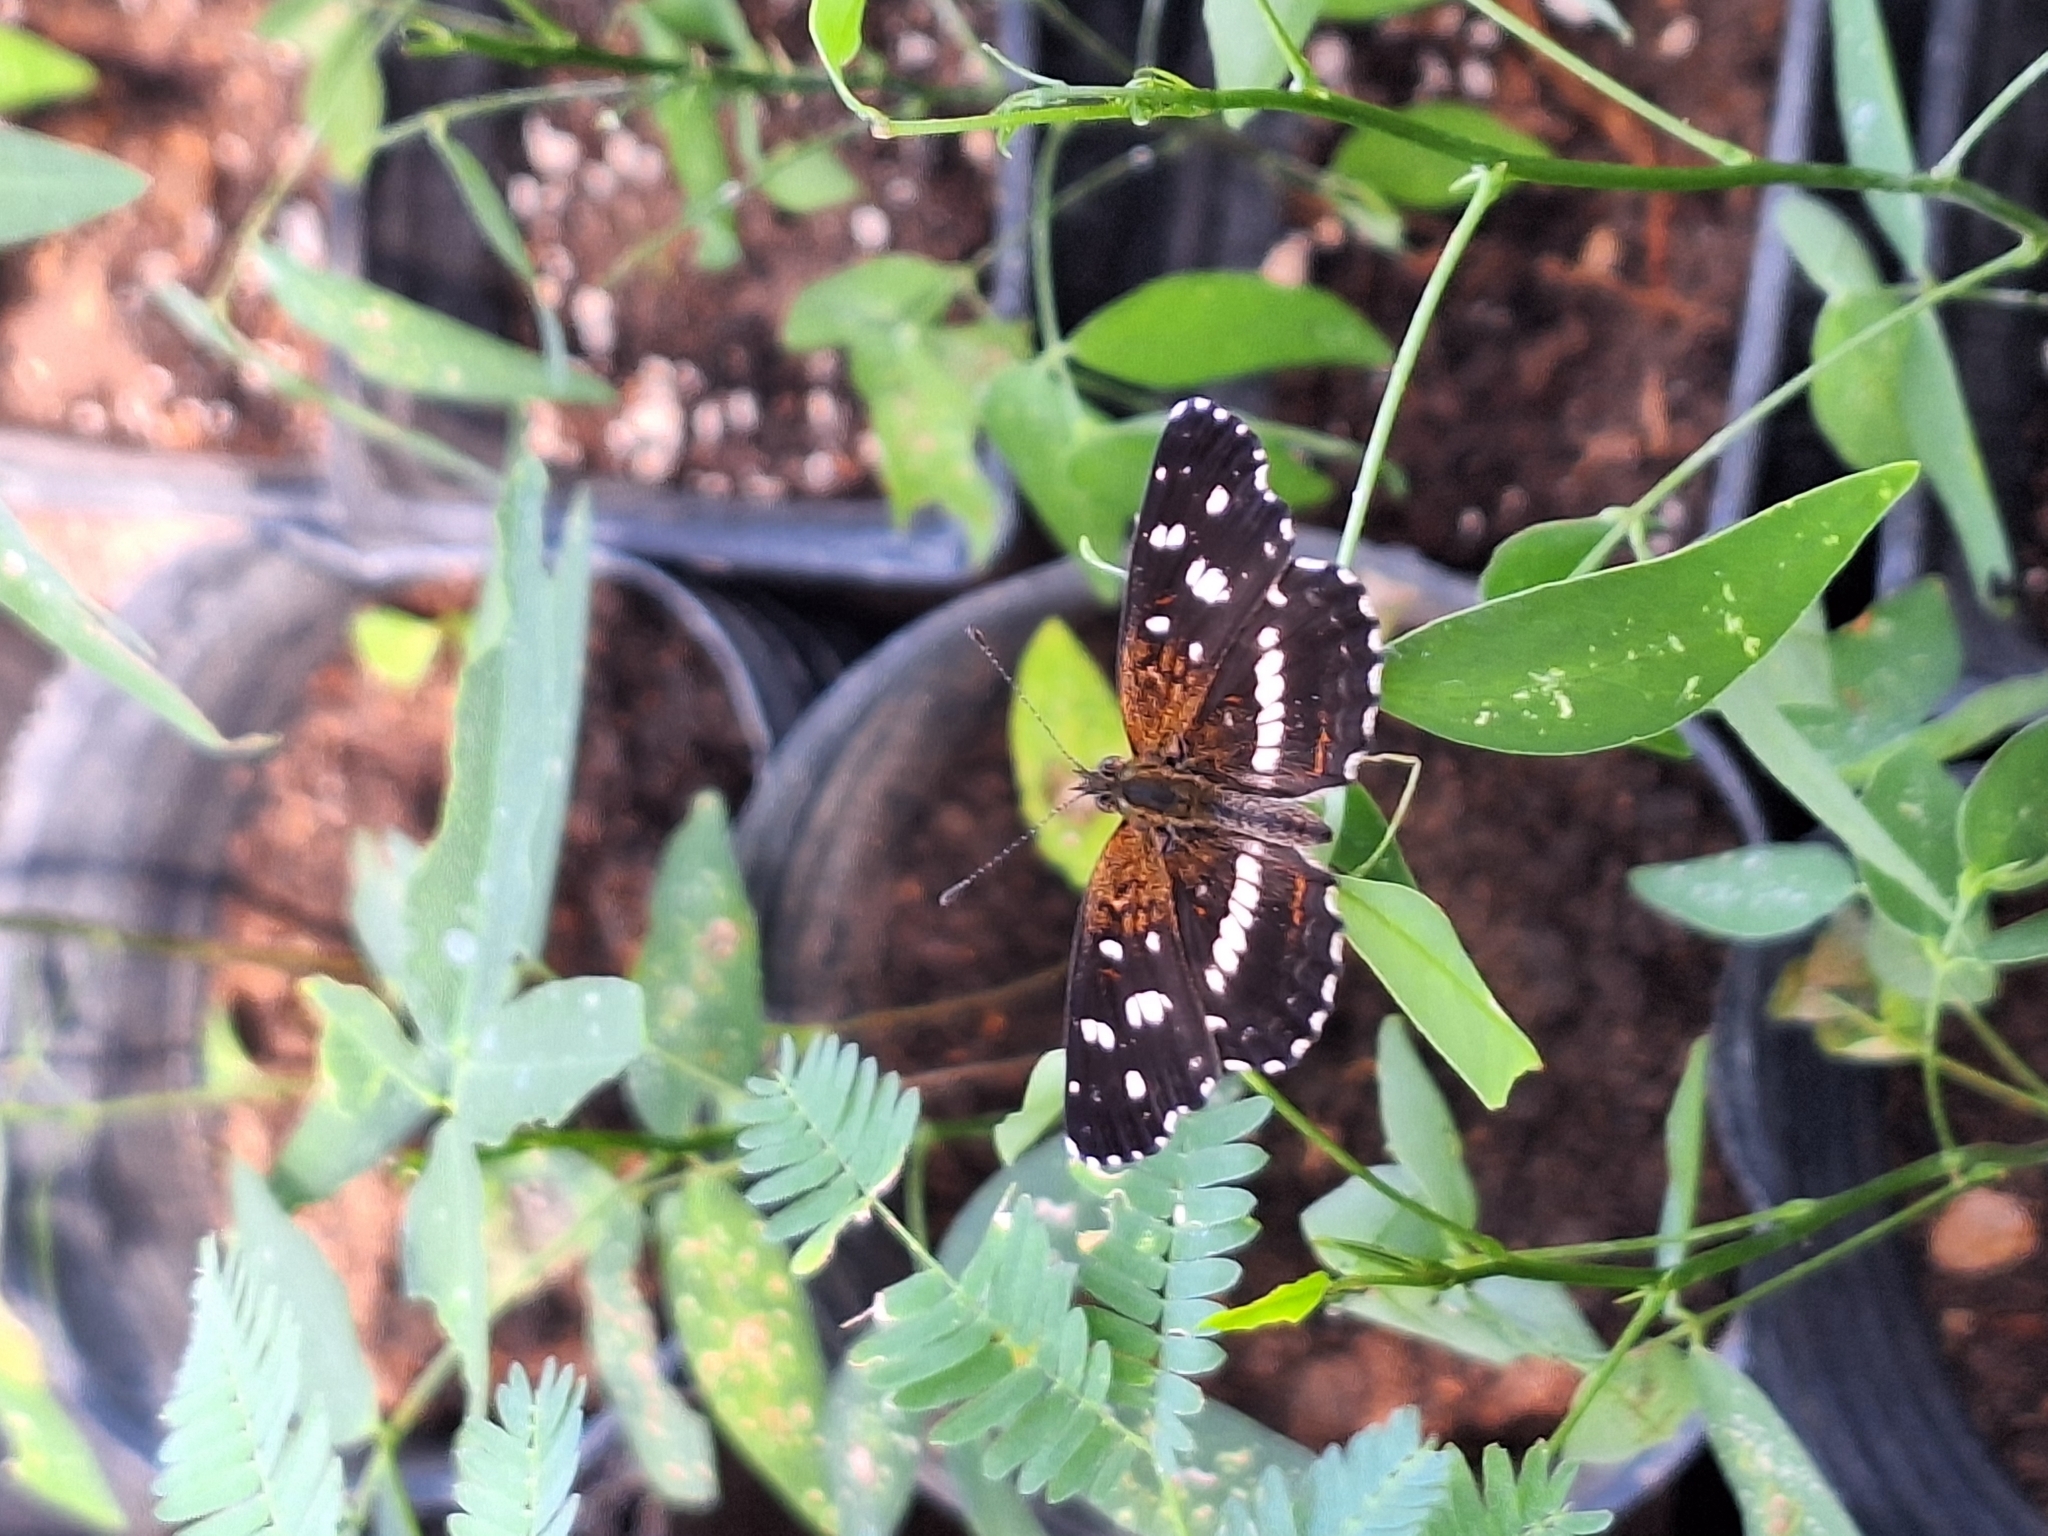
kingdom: Animalia
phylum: Arthropoda
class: Insecta
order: Lepidoptera
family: Nymphalidae
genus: Ortilia
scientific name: Ortilia ithra
